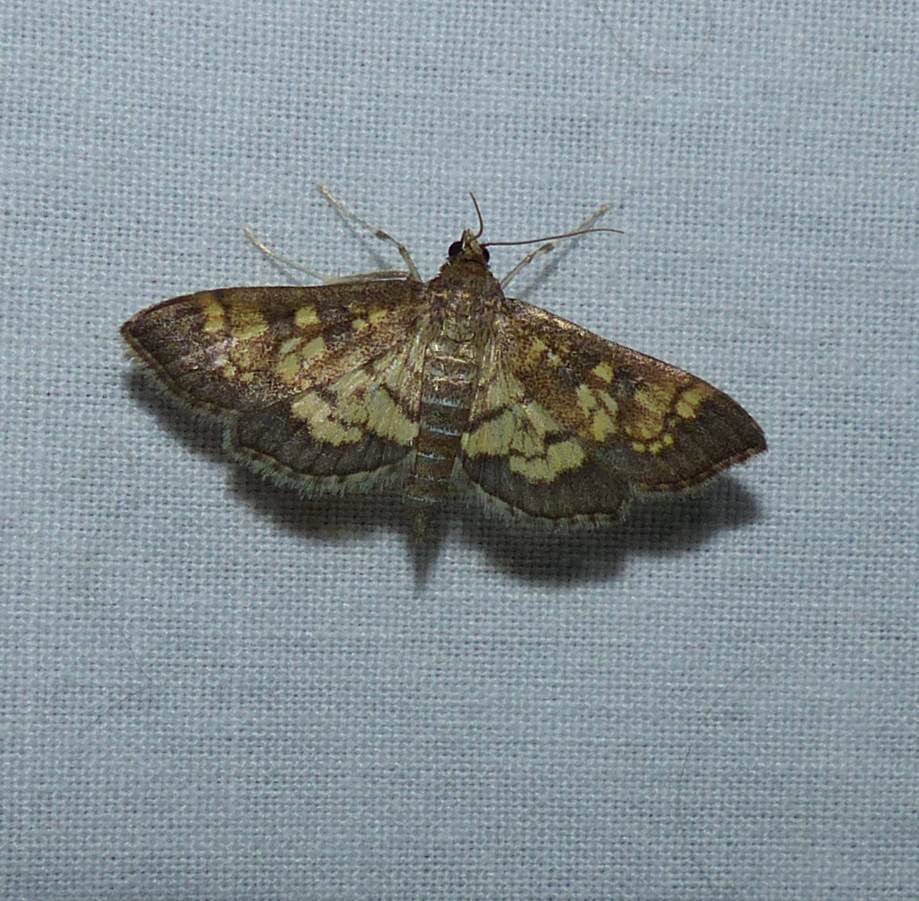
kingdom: Animalia
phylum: Arthropoda
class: Insecta
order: Lepidoptera
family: Crambidae
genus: Epipagis
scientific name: Epipagis adipaloides
